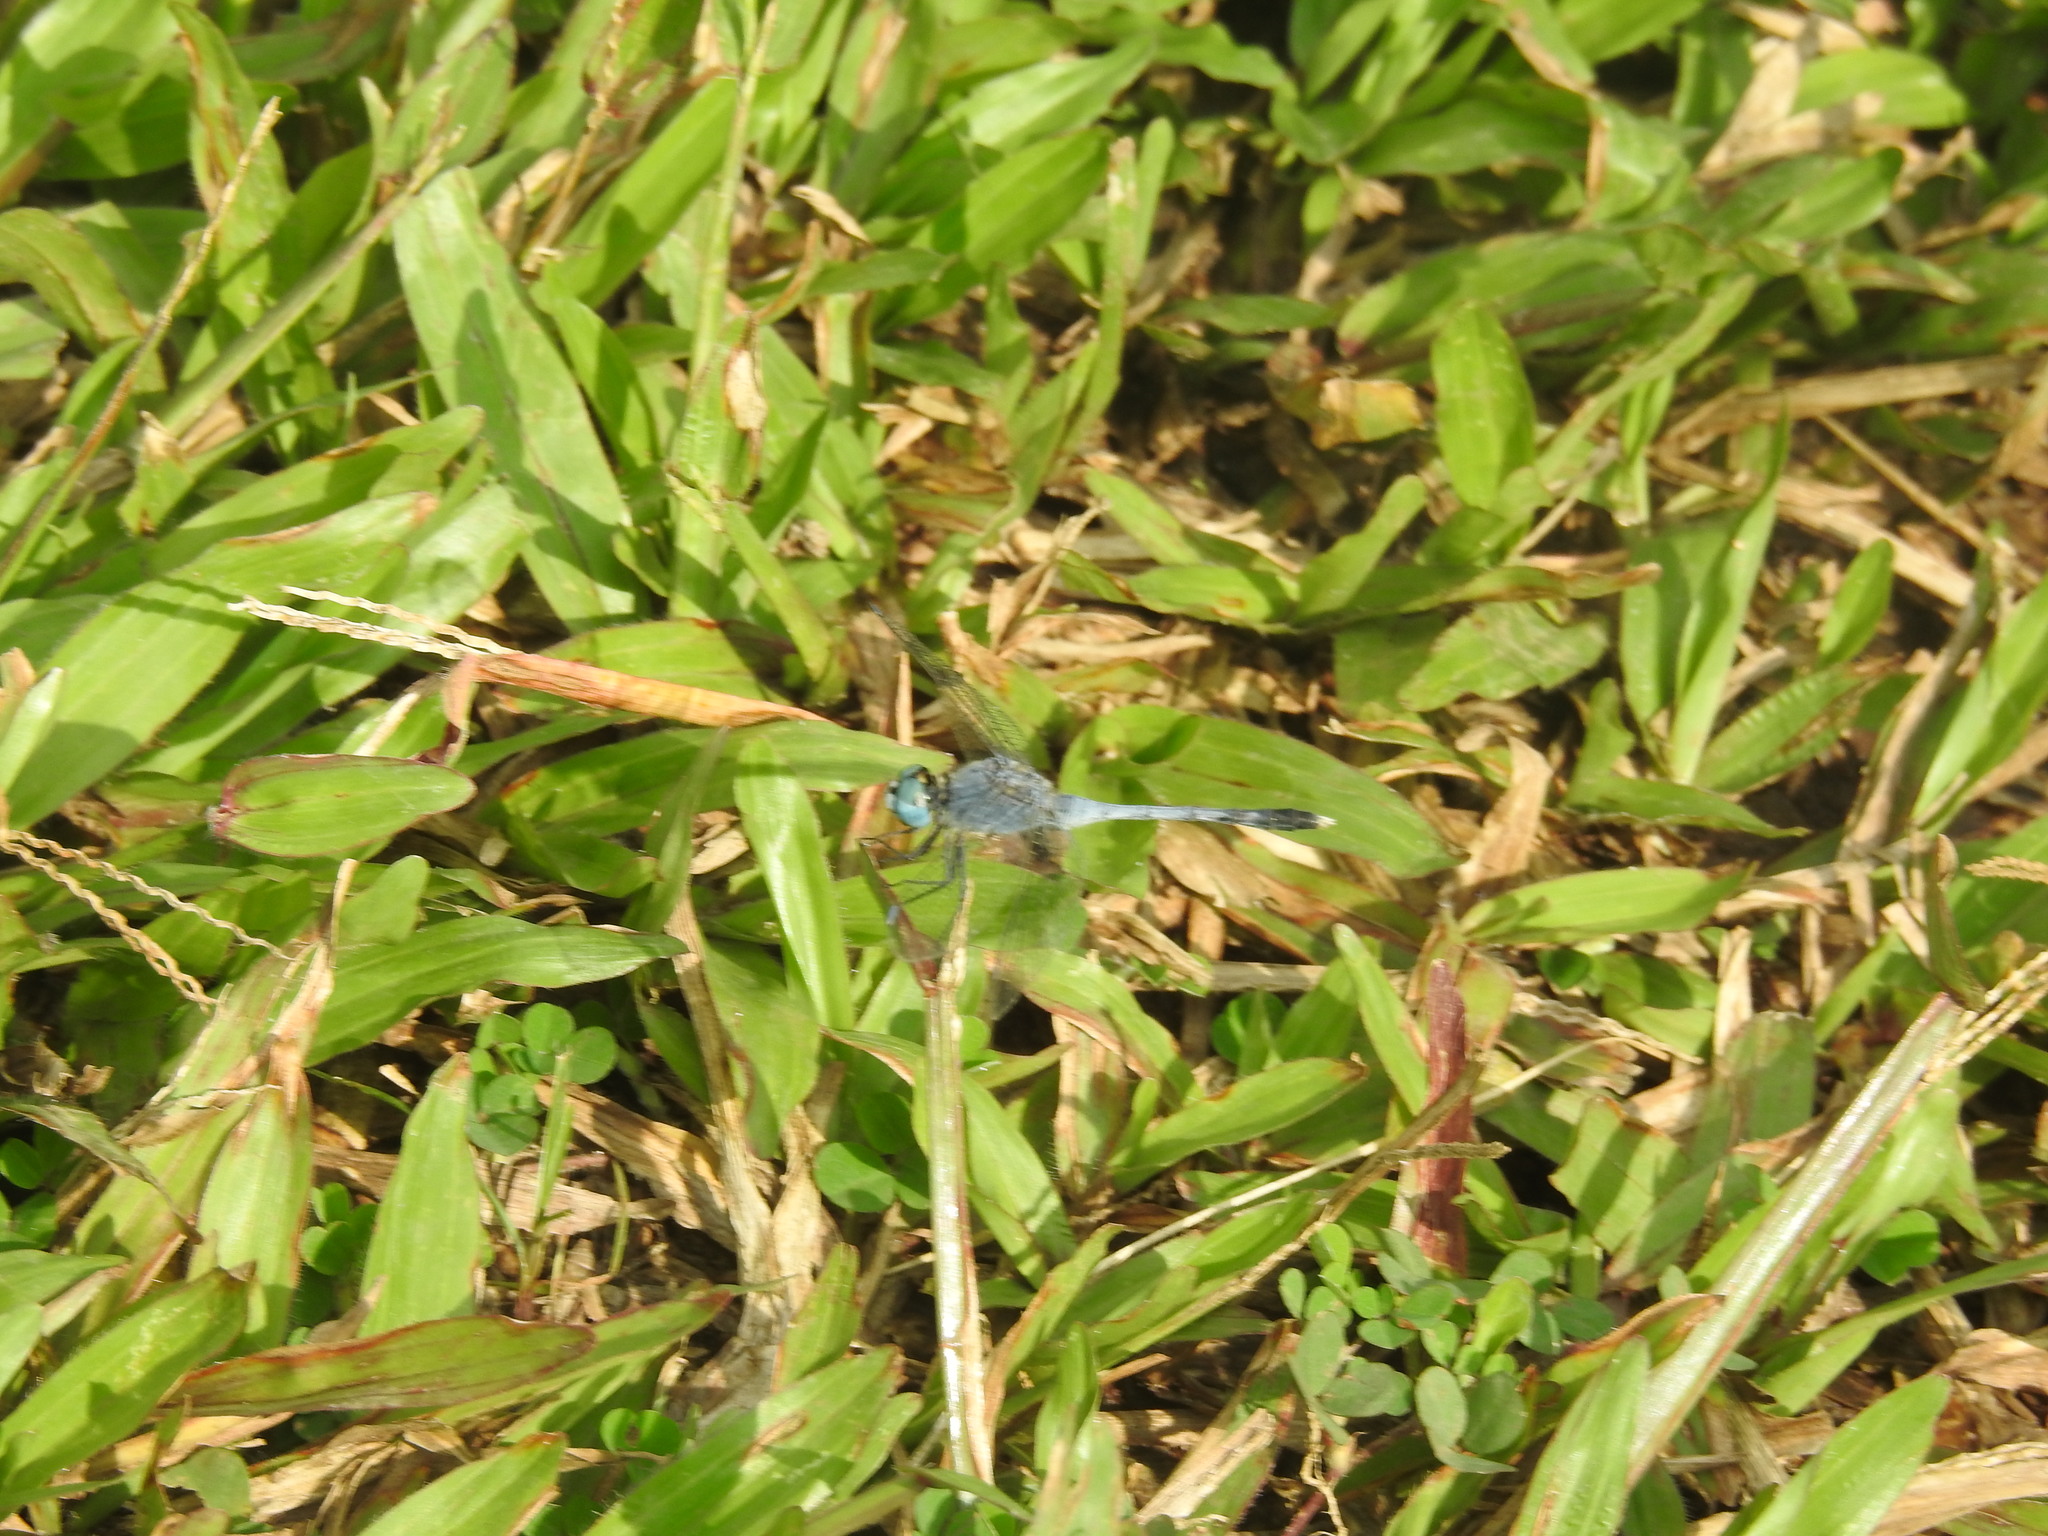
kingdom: Animalia
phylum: Arthropoda
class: Insecta
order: Odonata
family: Libellulidae
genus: Diplacodes
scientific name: Diplacodes trivialis
